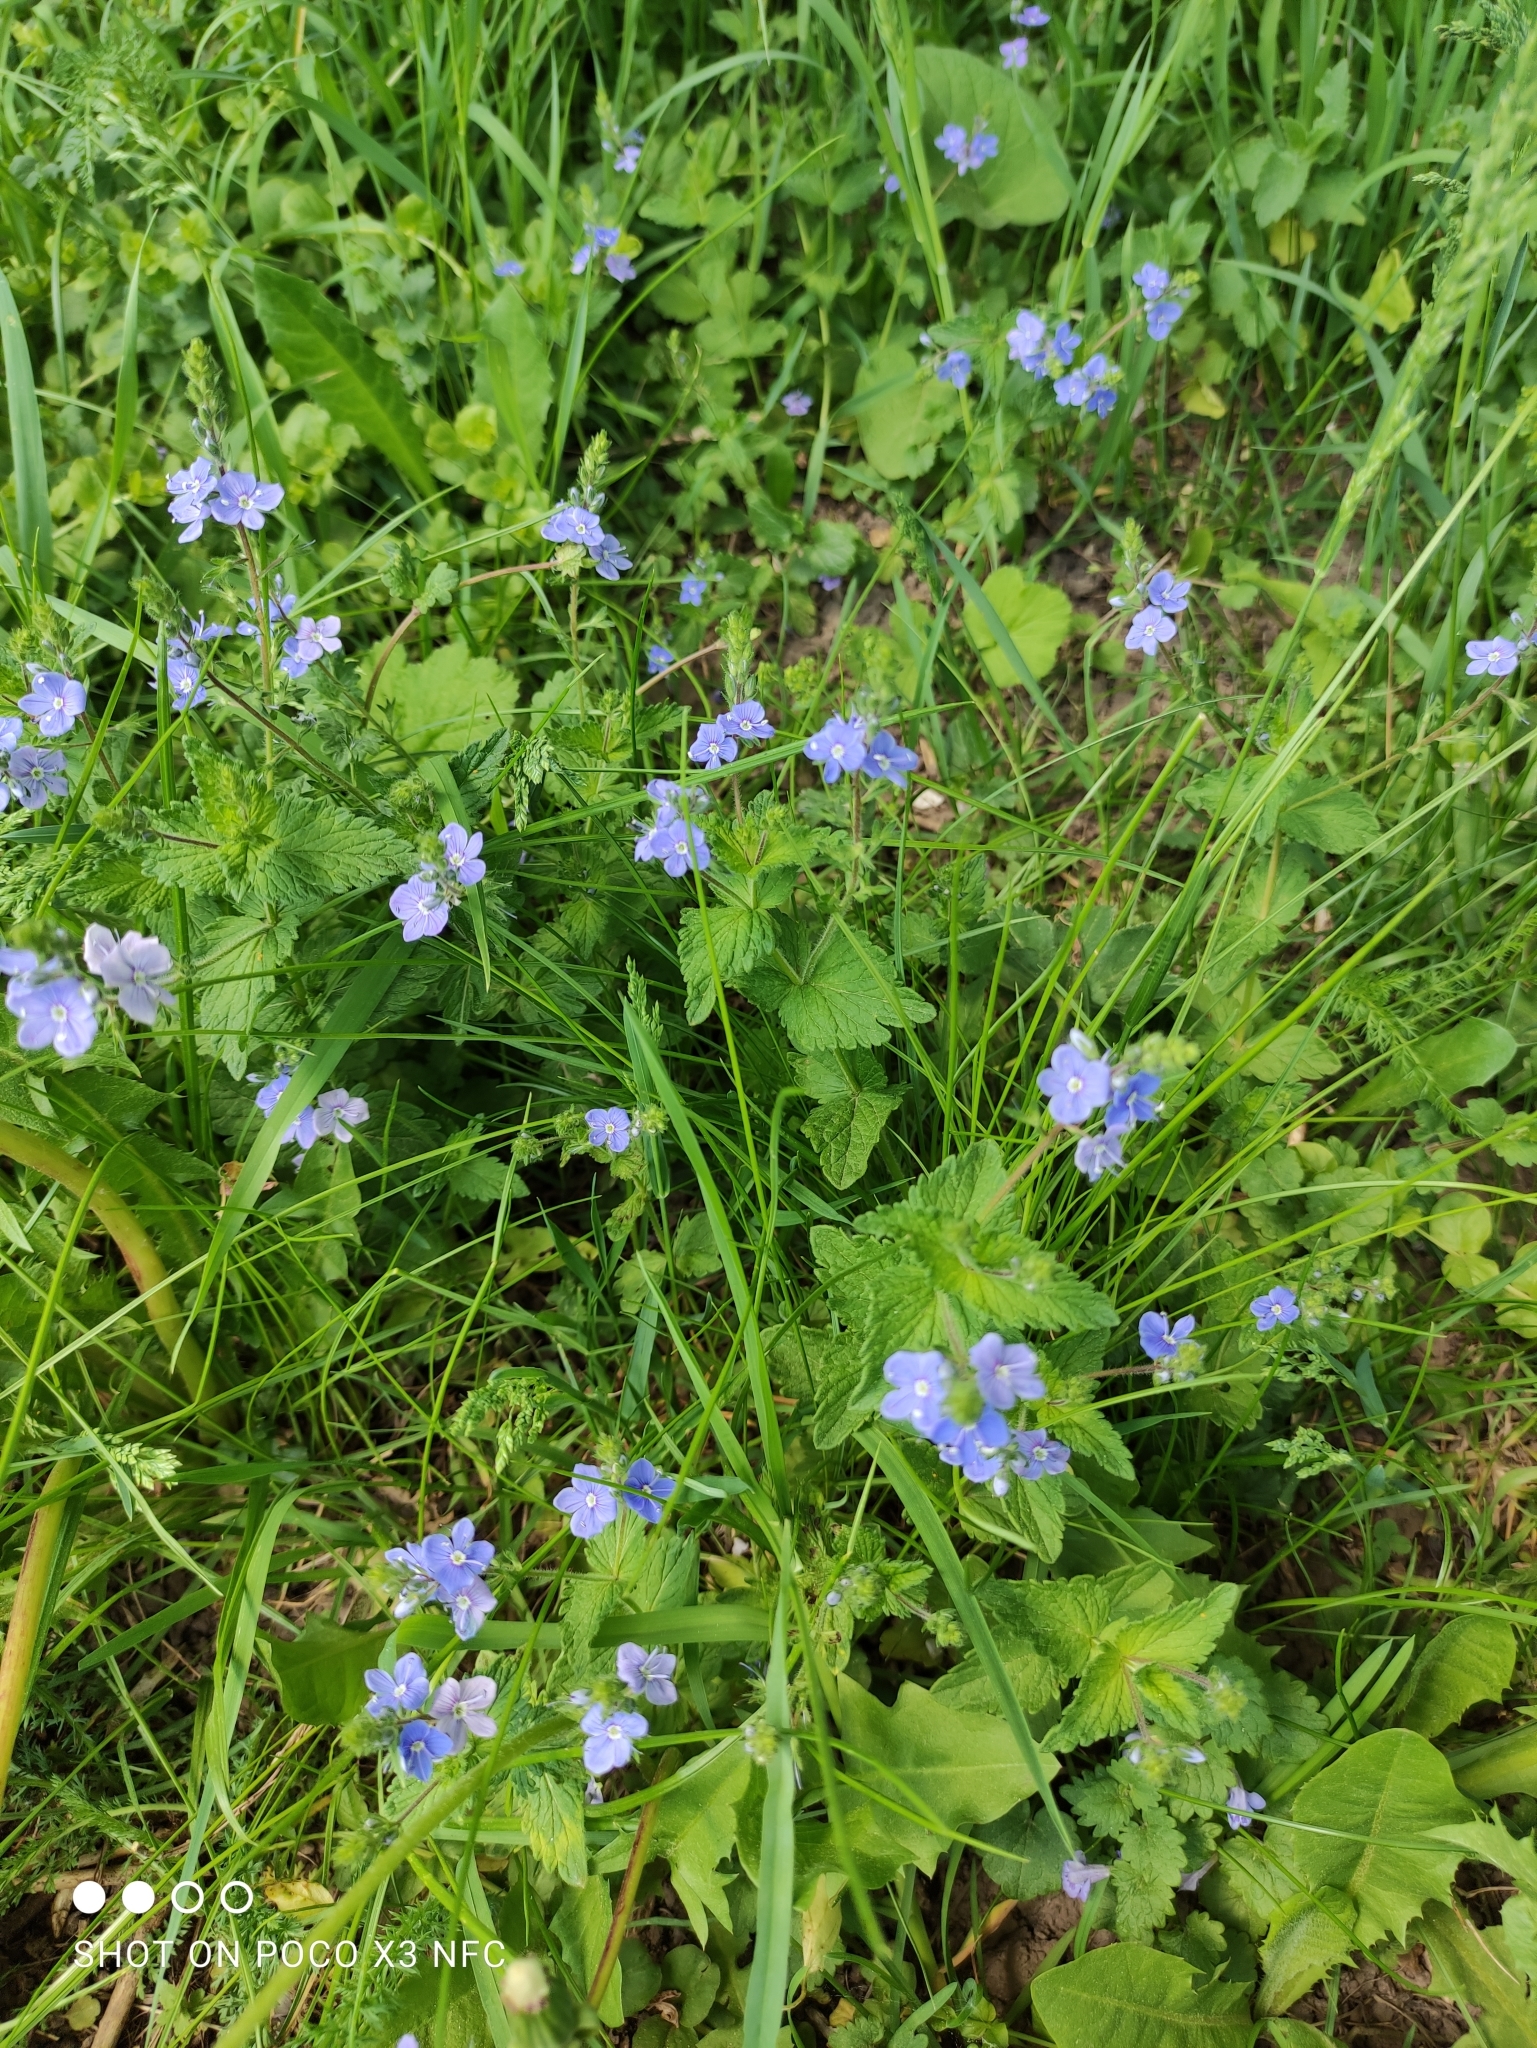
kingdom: Plantae
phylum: Tracheophyta
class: Magnoliopsida
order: Lamiales
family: Plantaginaceae
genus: Veronica
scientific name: Veronica chamaedrys
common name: Germander speedwell
